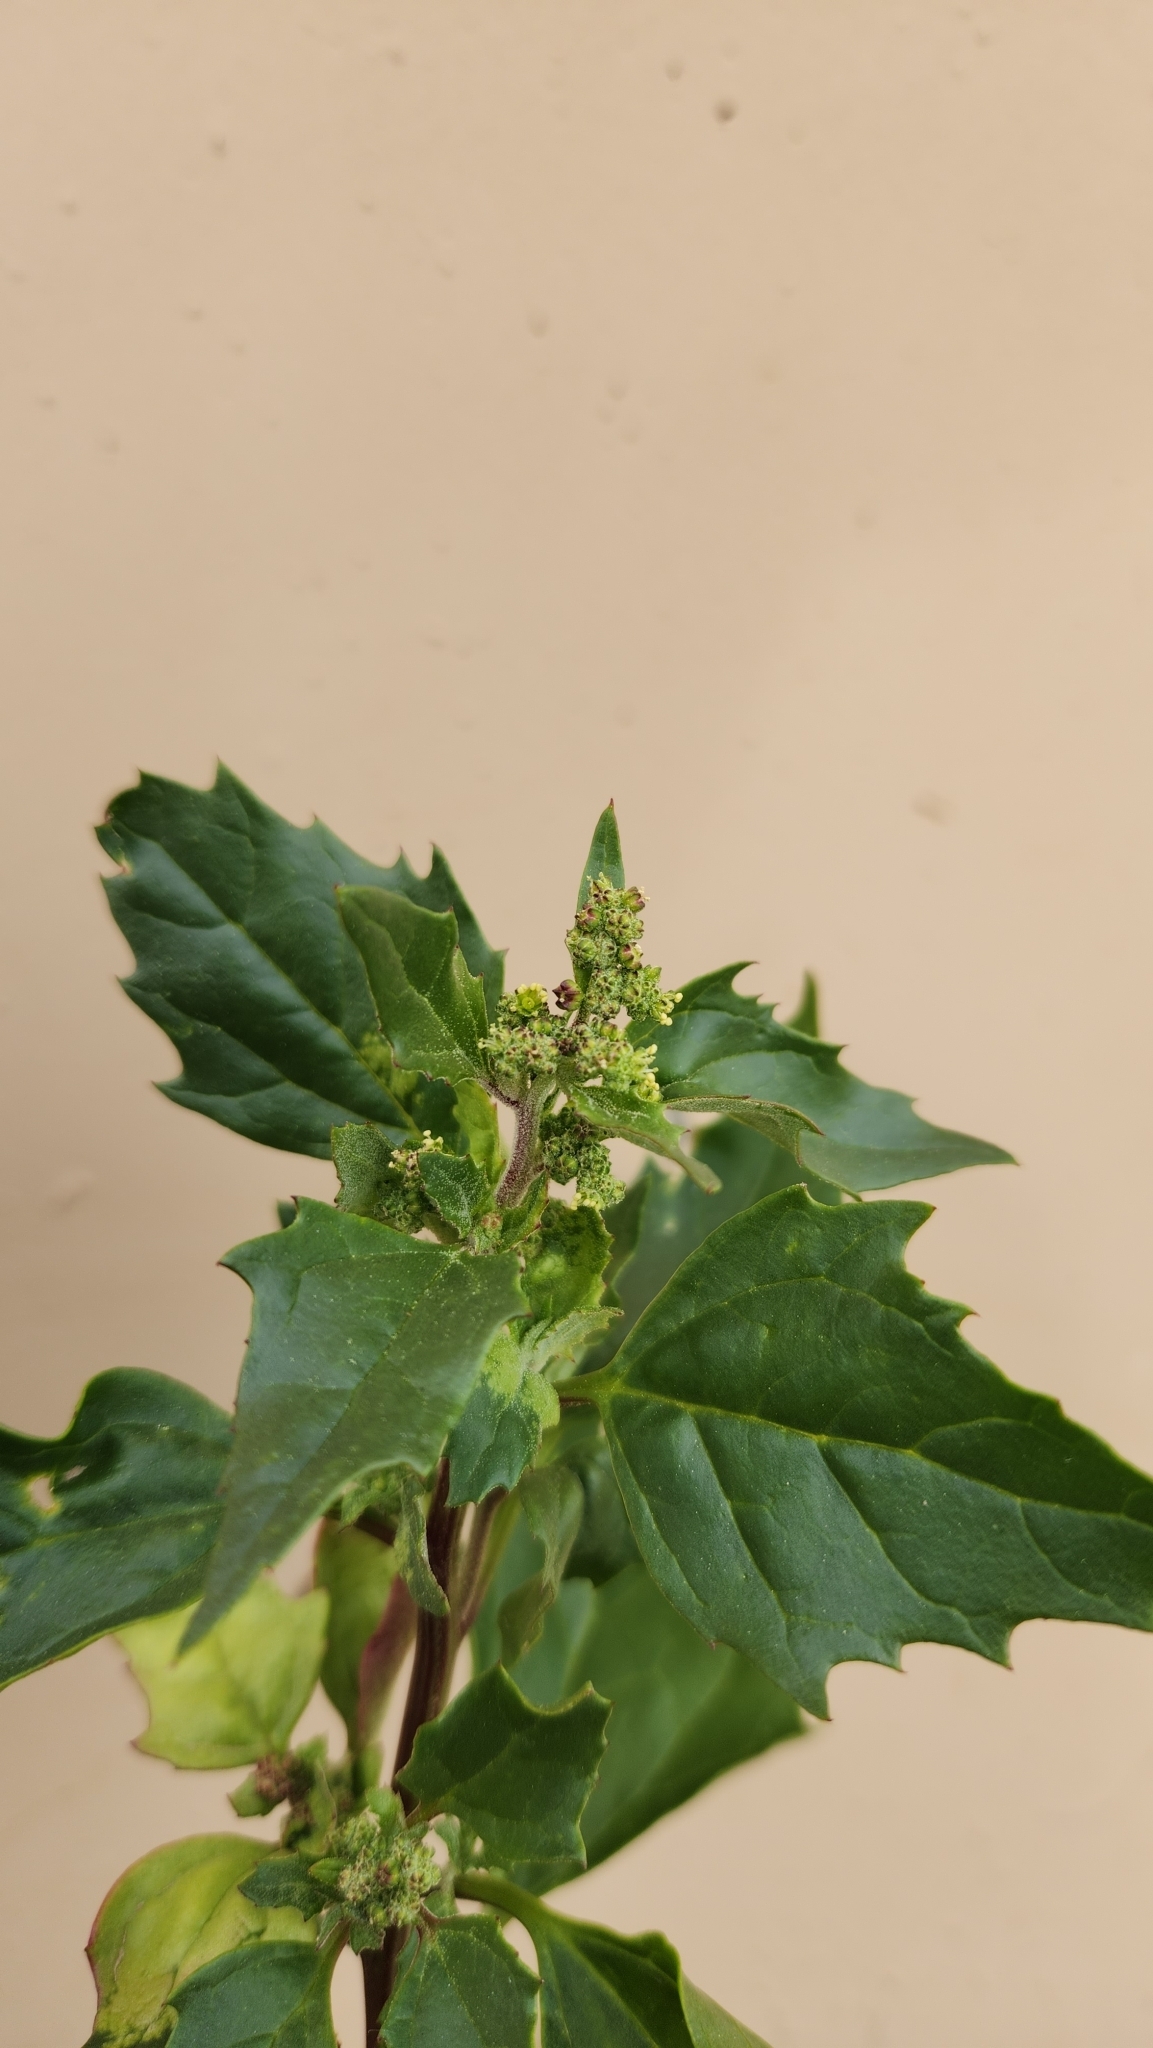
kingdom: Plantae
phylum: Tracheophyta
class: Magnoliopsida
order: Caryophyllales
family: Amaranthaceae
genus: Chenopodiastrum
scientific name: Chenopodiastrum murale
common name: Sowbane
